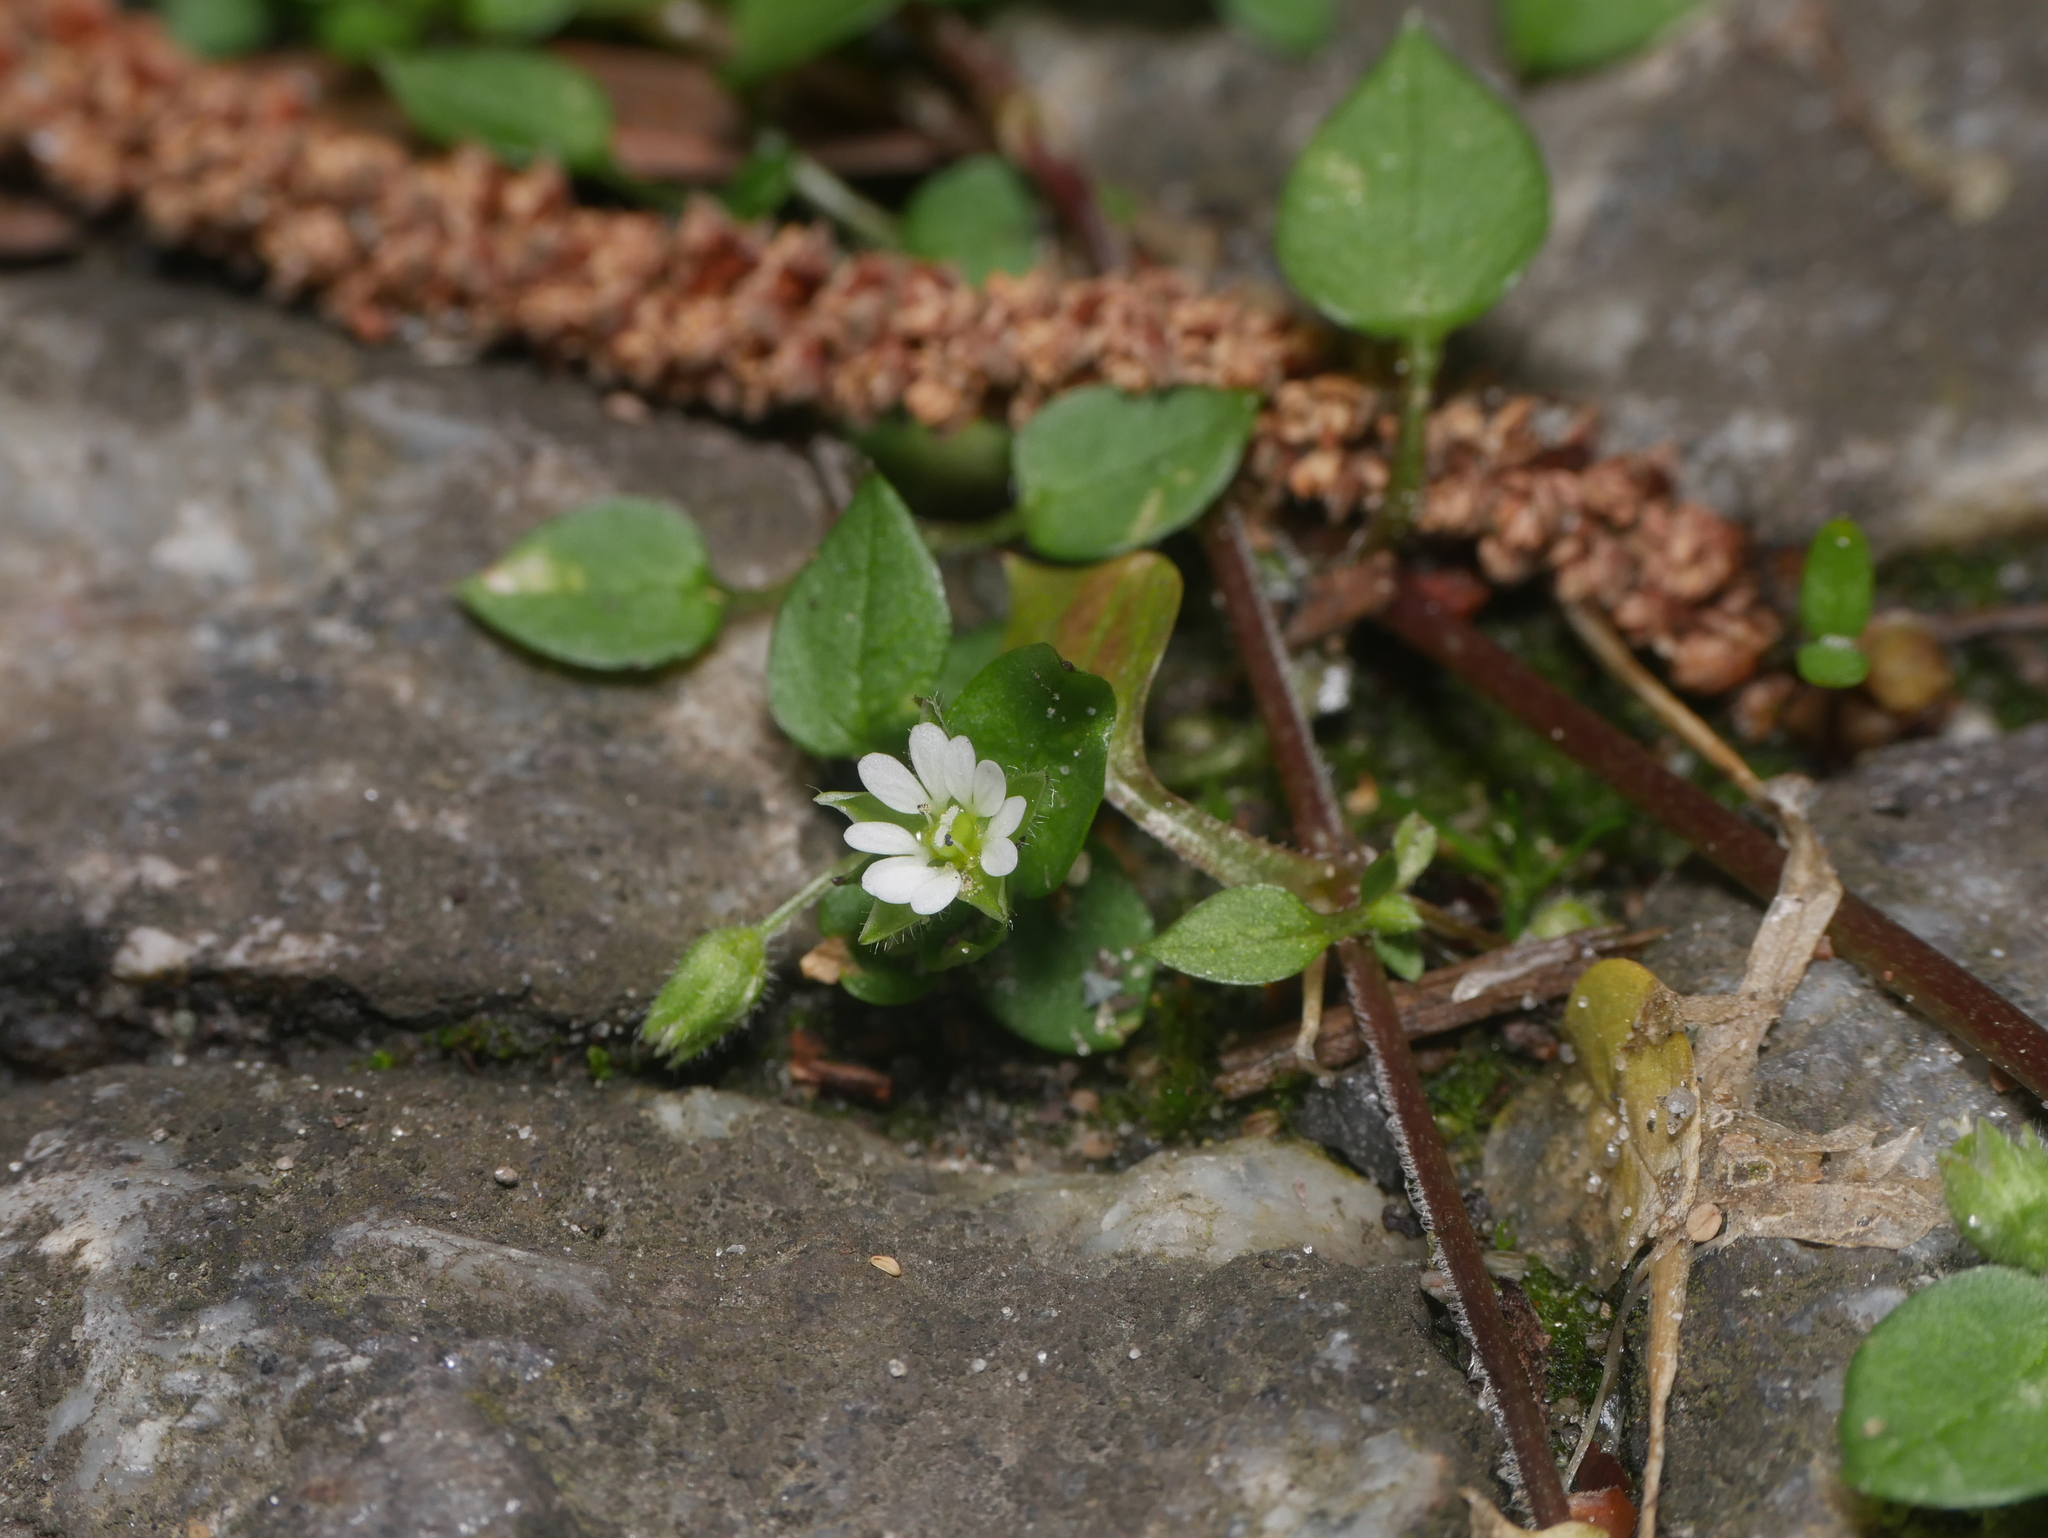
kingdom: Plantae
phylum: Tracheophyta
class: Magnoliopsida
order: Caryophyllales
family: Caryophyllaceae
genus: Stellaria
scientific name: Stellaria media
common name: Common chickweed
